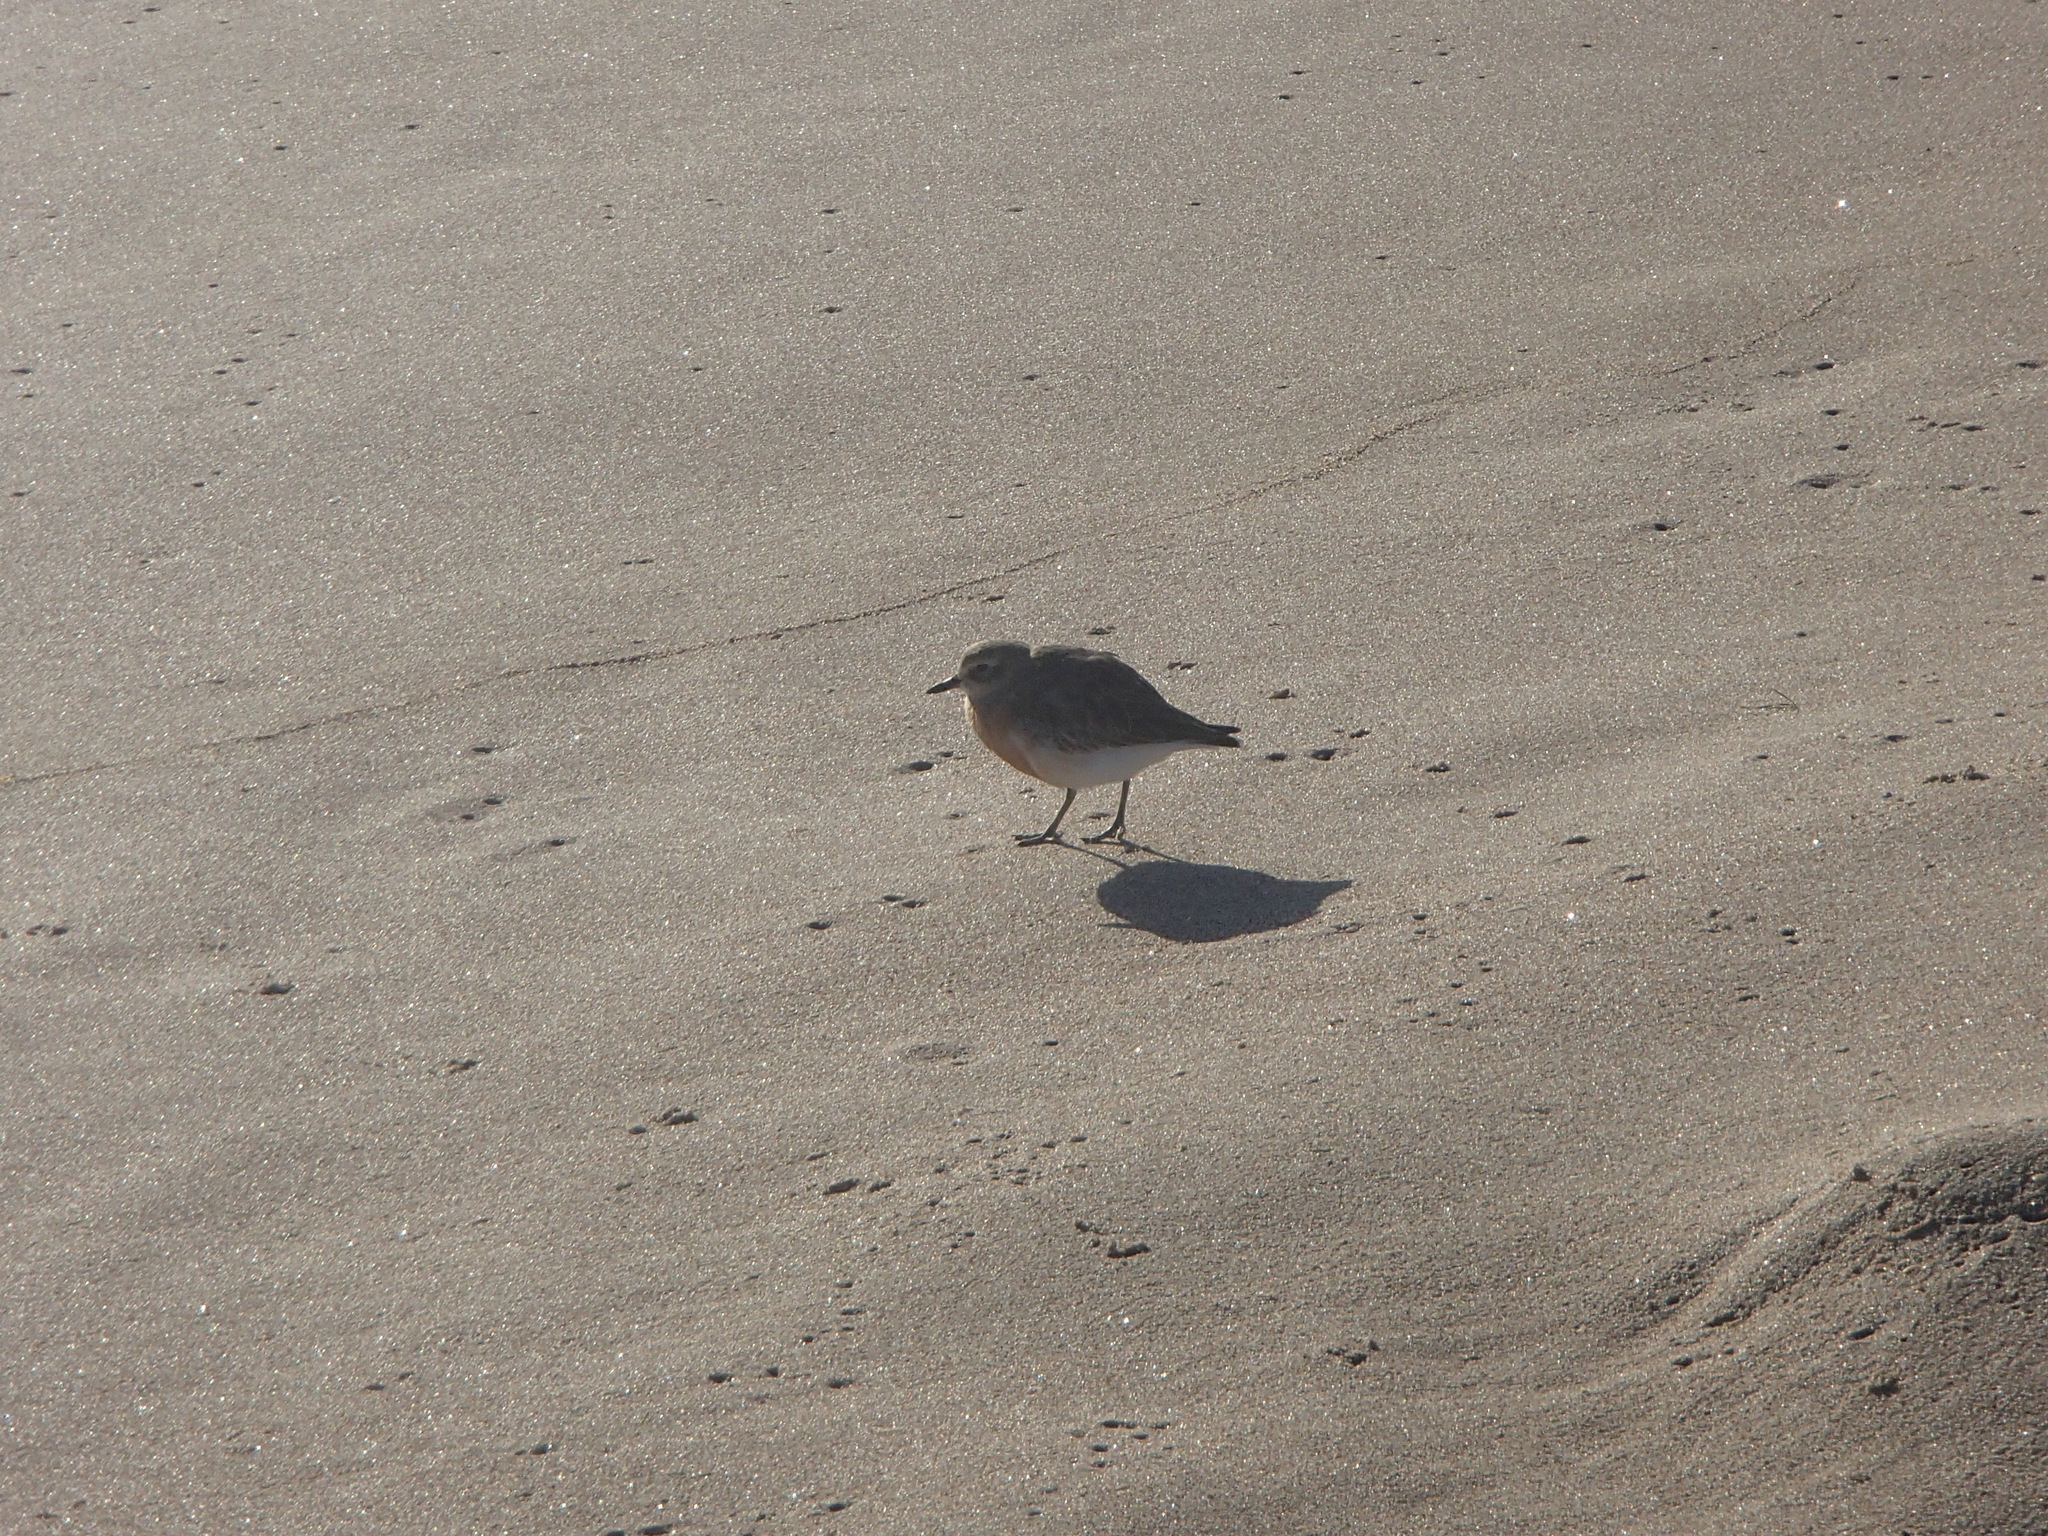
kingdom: Animalia
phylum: Chordata
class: Aves
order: Charadriiformes
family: Charadriidae
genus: Anarhynchus
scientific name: Anarhynchus
